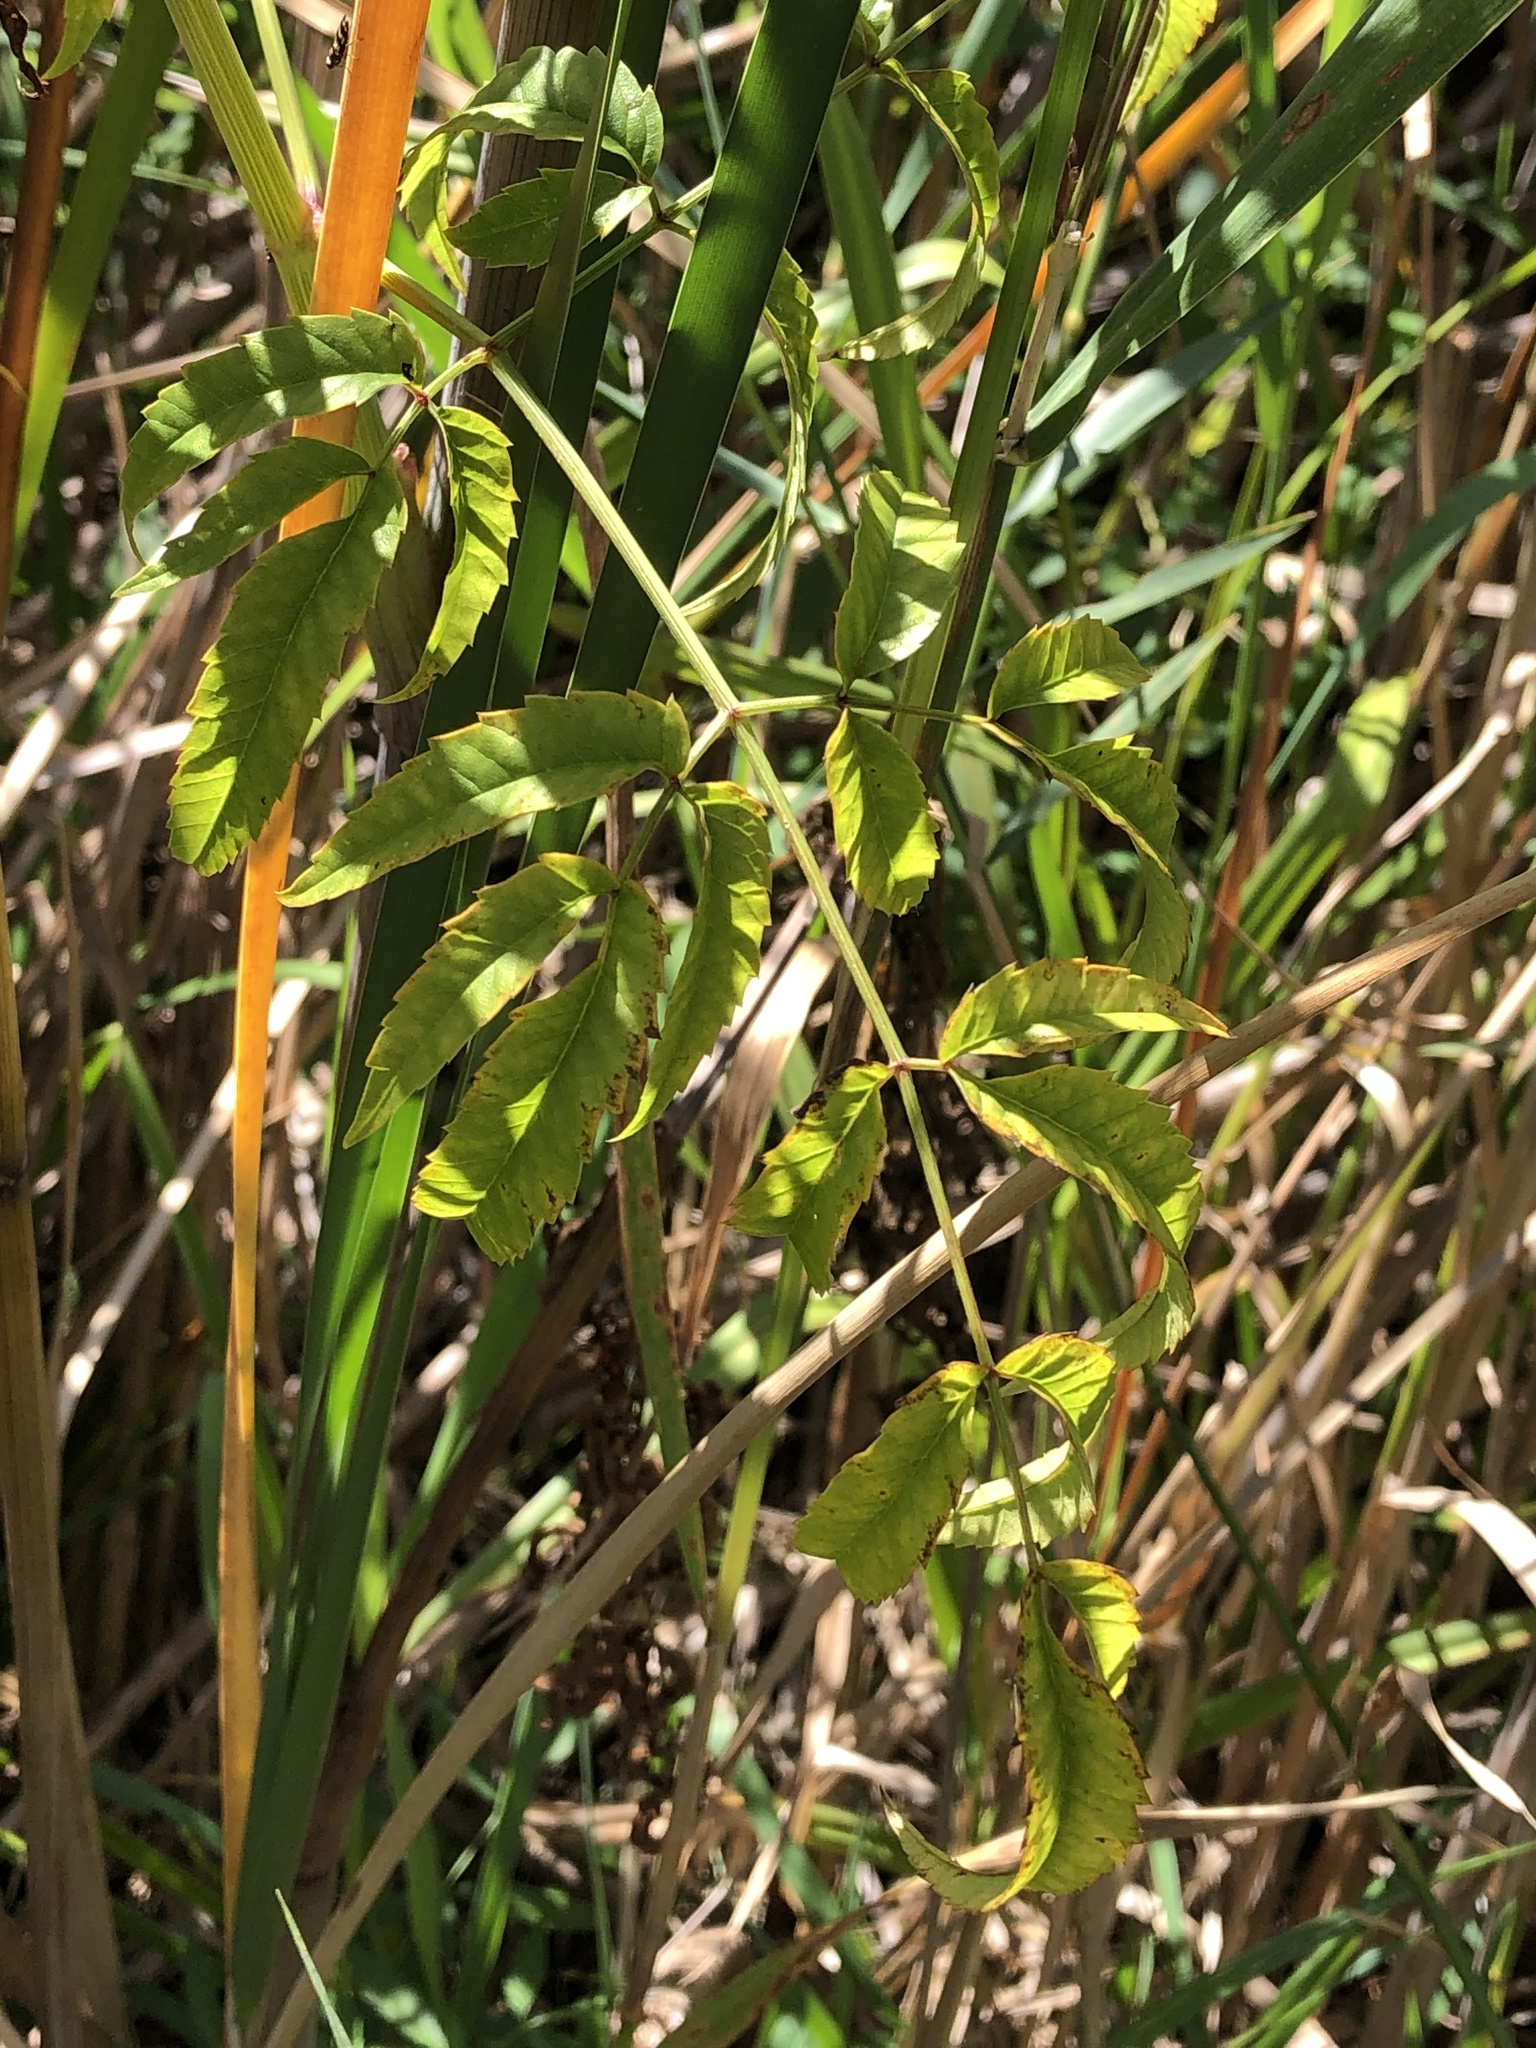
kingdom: Plantae
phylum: Tracheophyta
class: Magnoliopsida
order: Apiales
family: Apiaceae
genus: Cicuta
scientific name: Cicuta maculata
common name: Spotted cowbane
